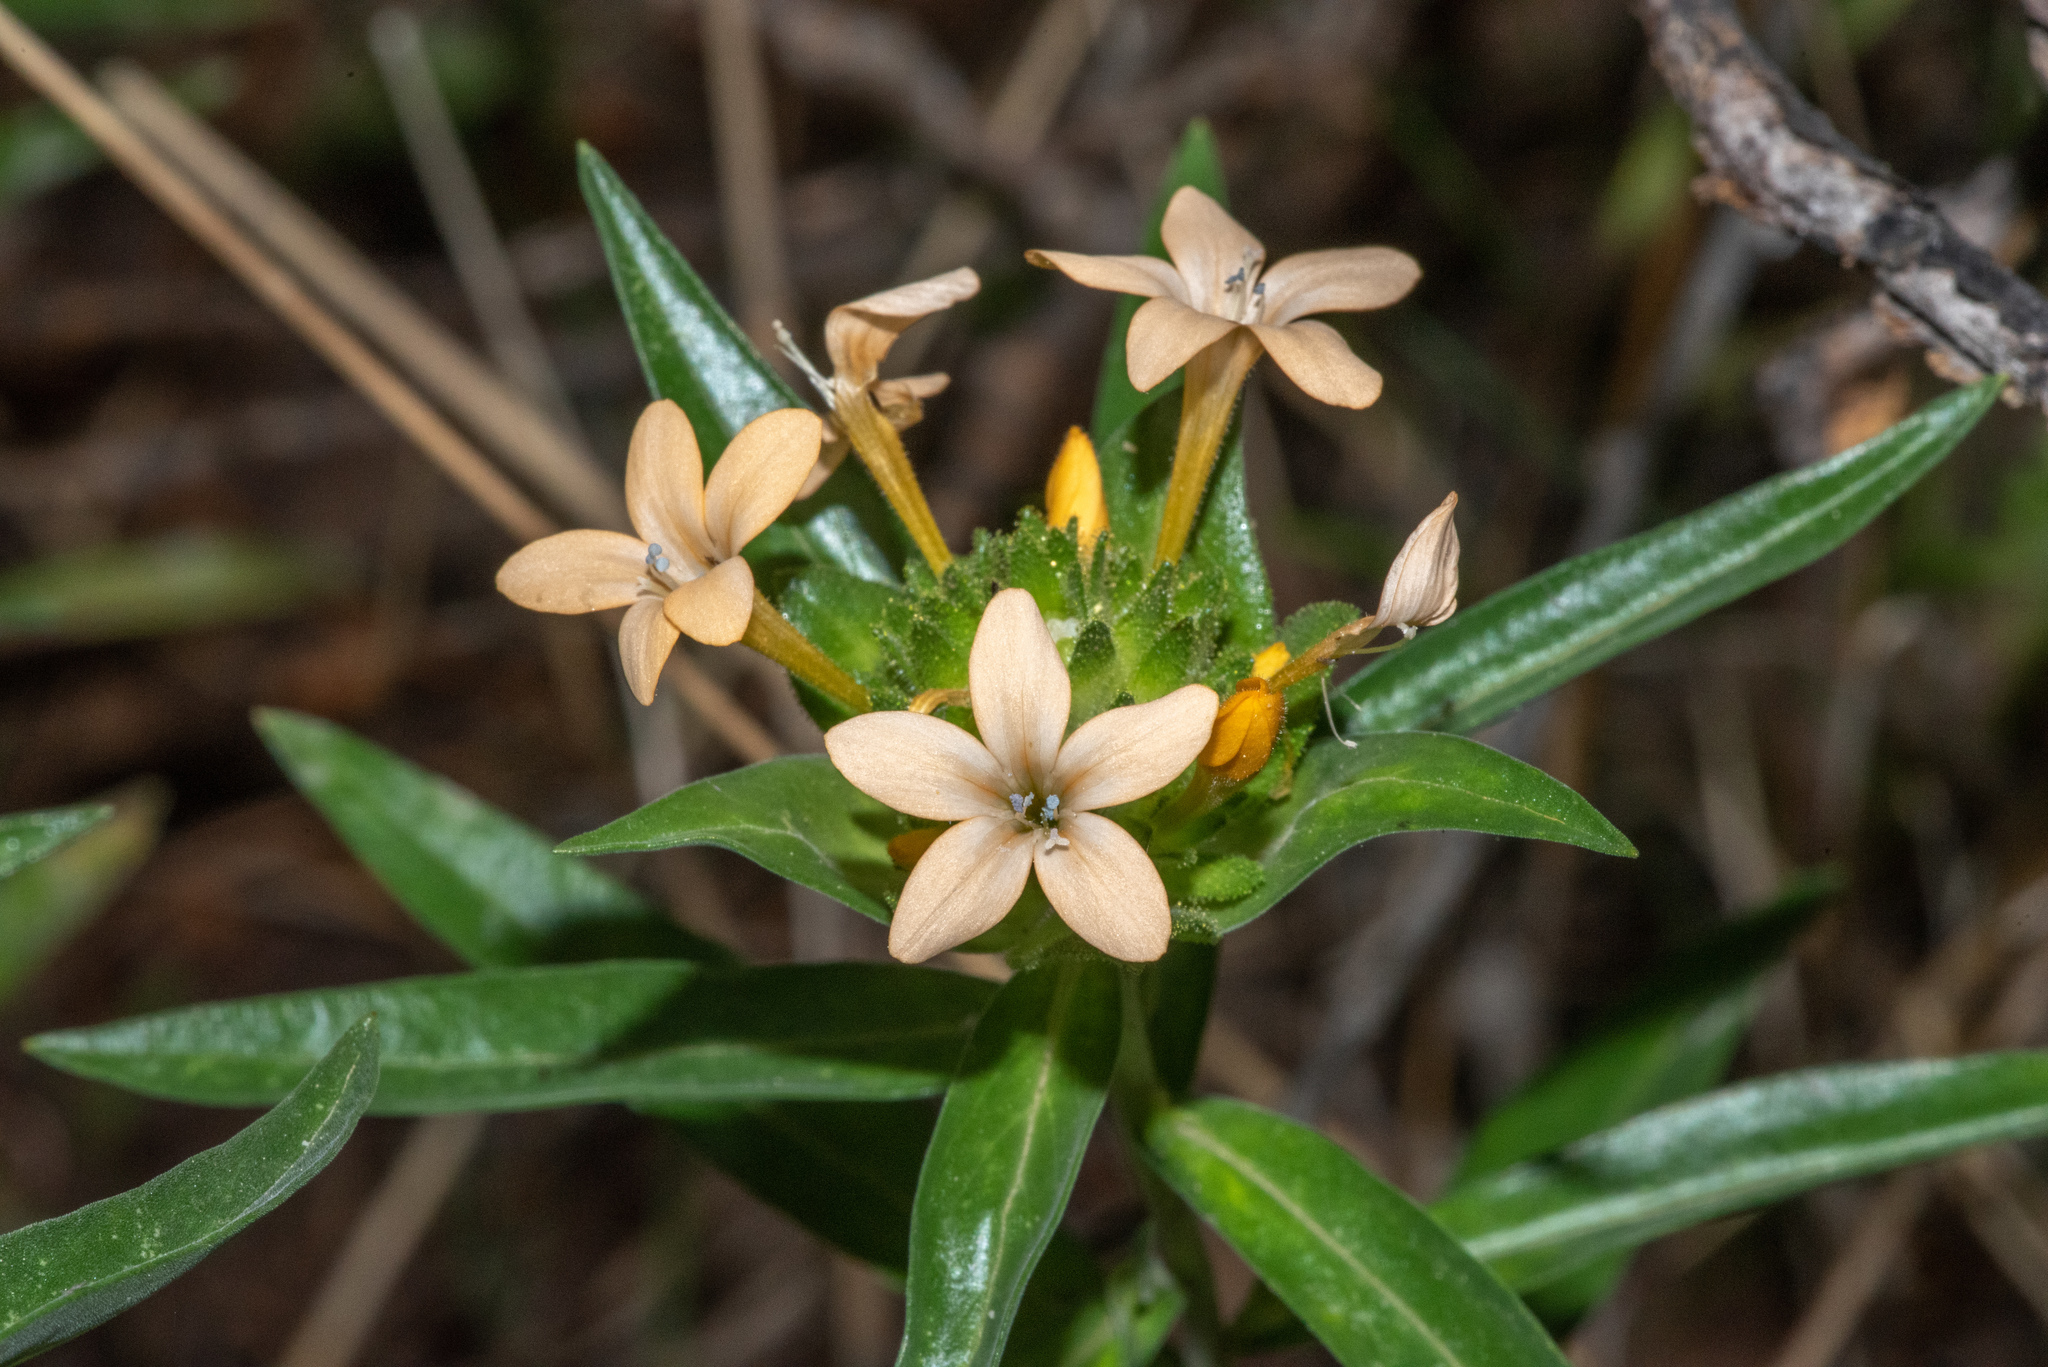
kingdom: Plantae
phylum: Tracheophyta
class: Magnoliopsida
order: Ericales
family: Polemoniaceae
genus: Collomia
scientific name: Collomia grandiflora
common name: California strawflower
